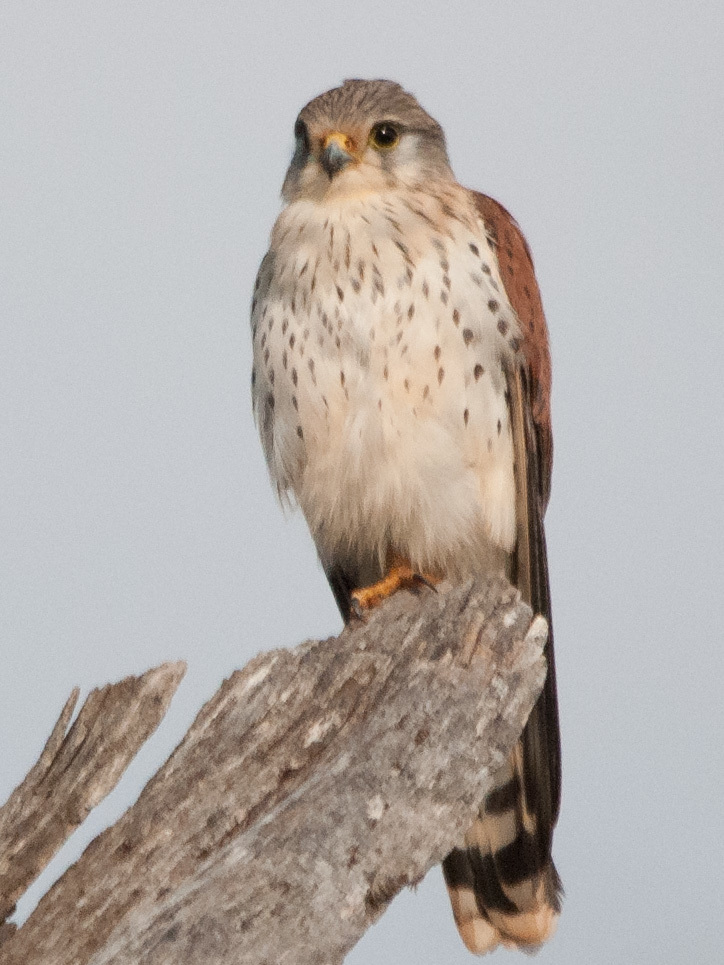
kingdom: Animalia
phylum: Chordata
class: Aves
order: Falconiformes
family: Falconidae
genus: Falco
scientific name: Falco newtoni
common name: Malagasy kestrel
